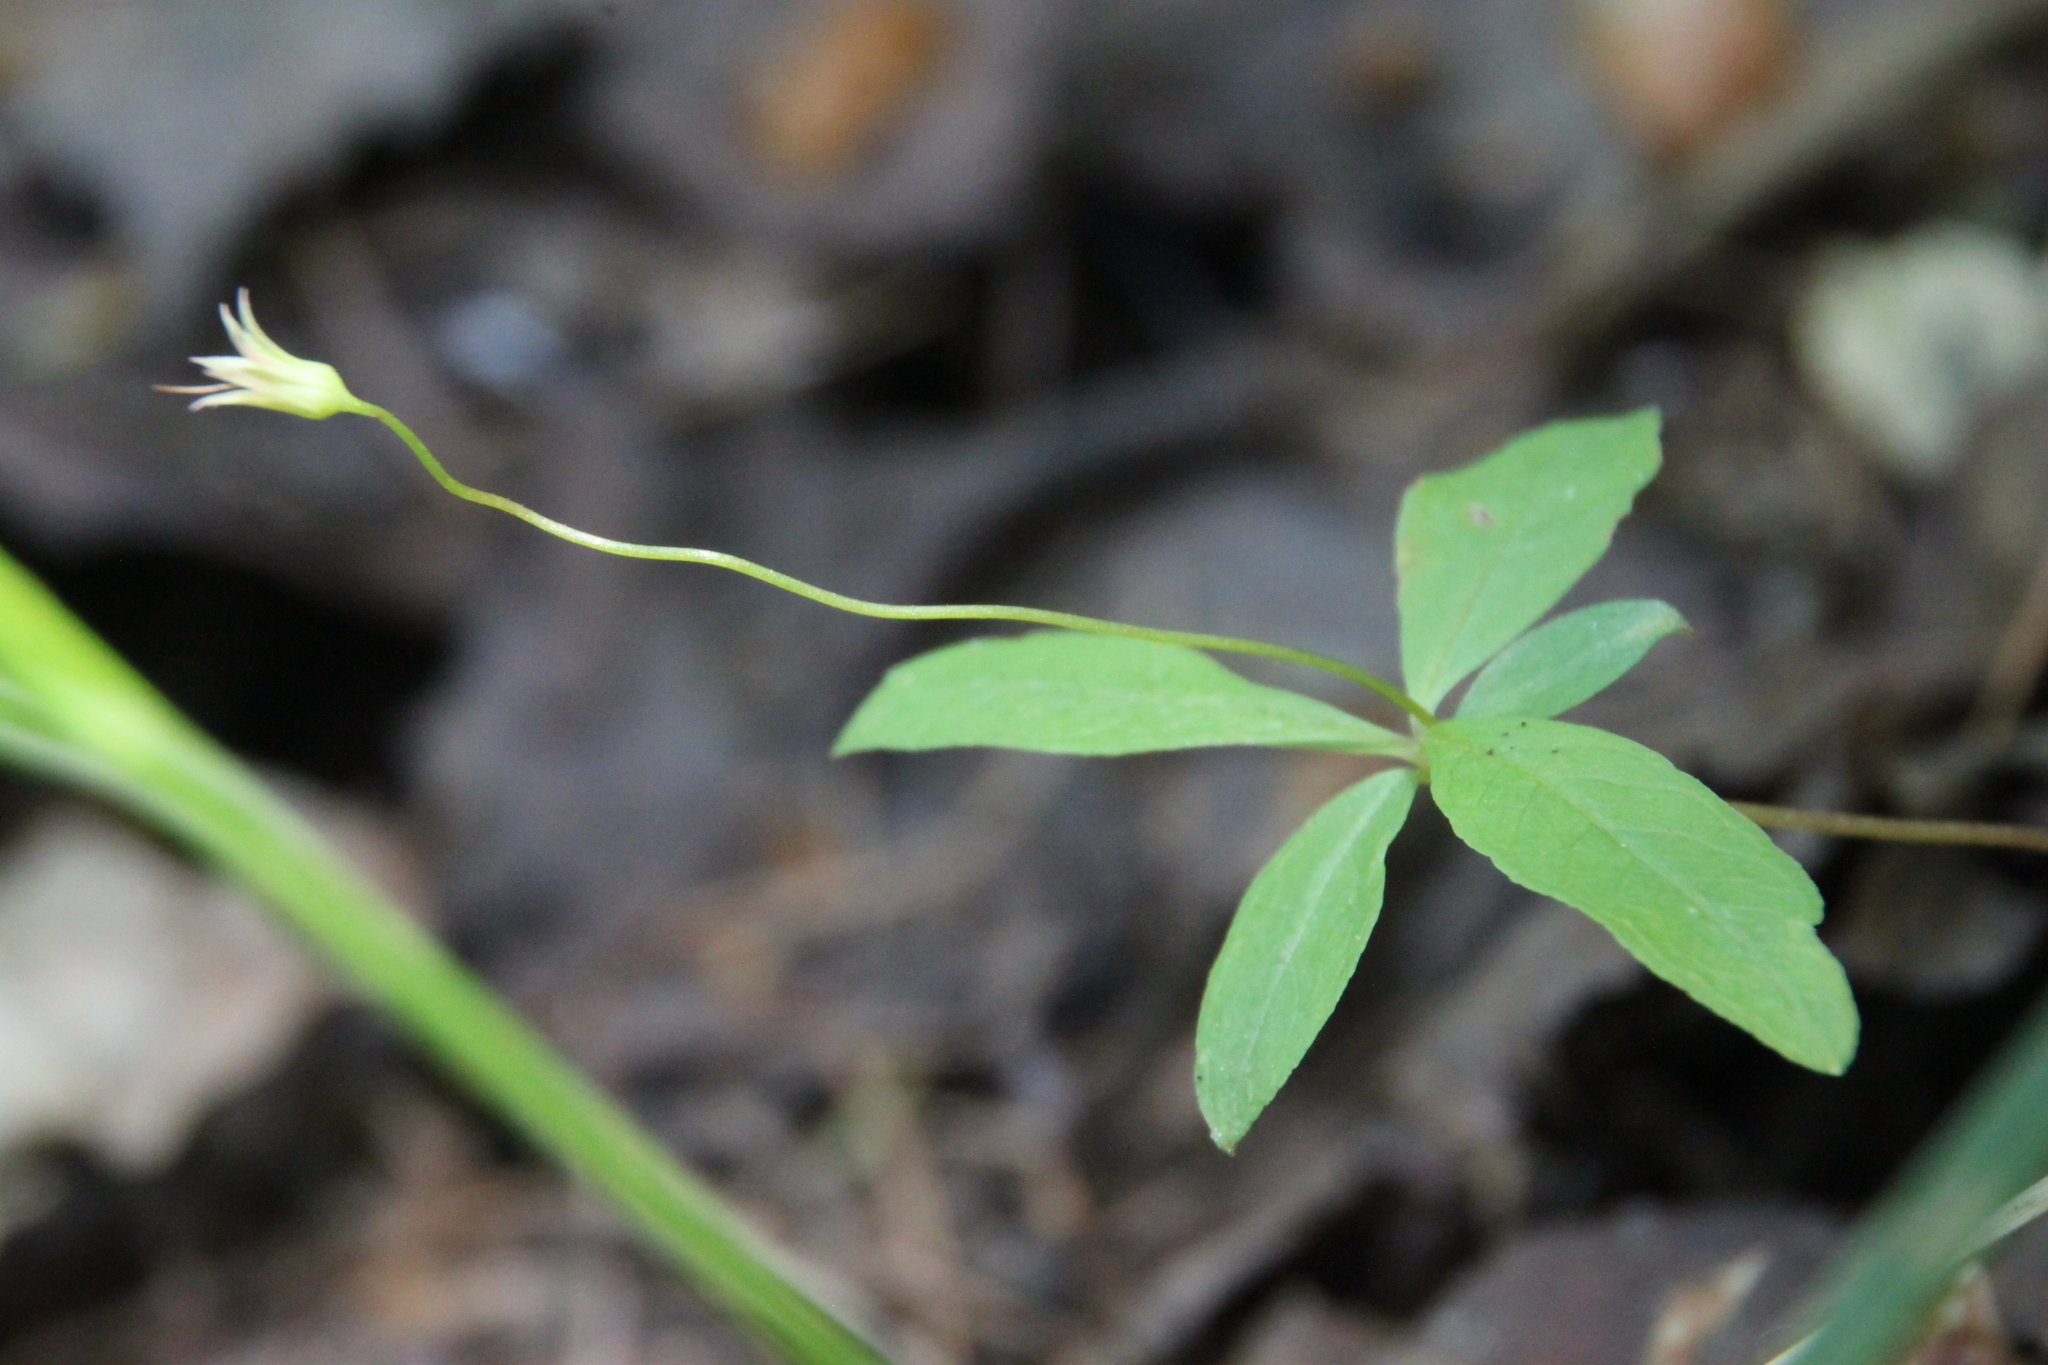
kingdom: Plantae
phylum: Tracheophyta
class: Magnoliopsida
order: Ericales
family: Primulaceae
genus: Lysimachia
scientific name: Lysimachia europaea
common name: Arctic starflower
